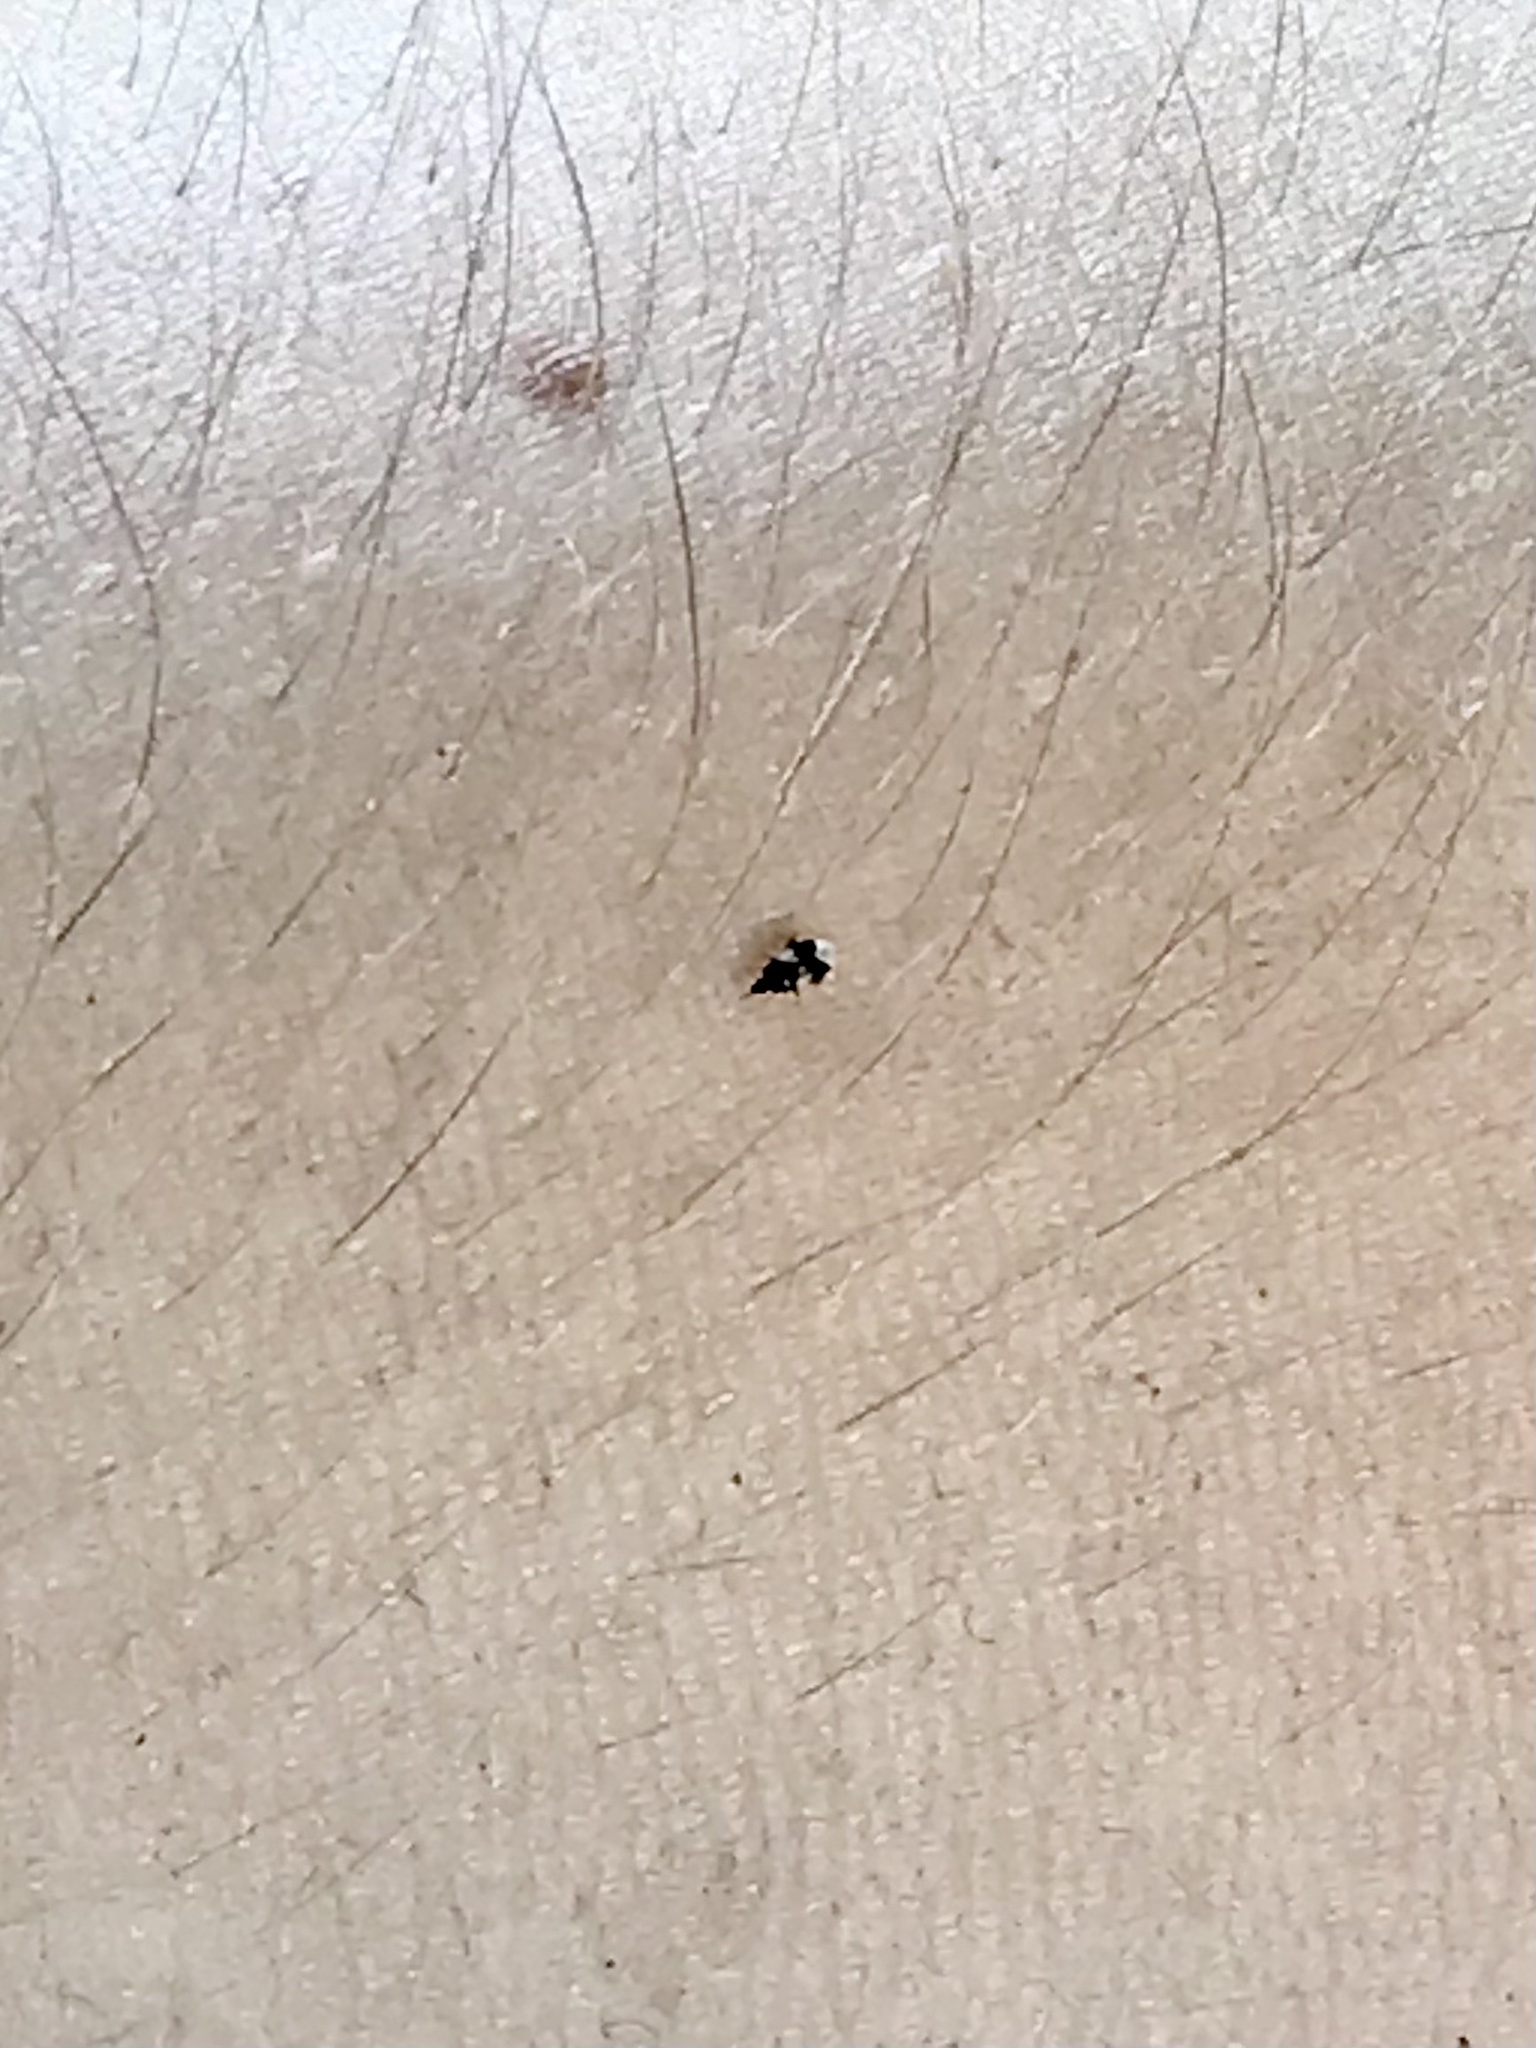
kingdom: Animalia
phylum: Arthropoda
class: Insecta
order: Hemiptera
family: Anthocoridae
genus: Orius
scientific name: Orius insidiosus
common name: Insidious flower bug
